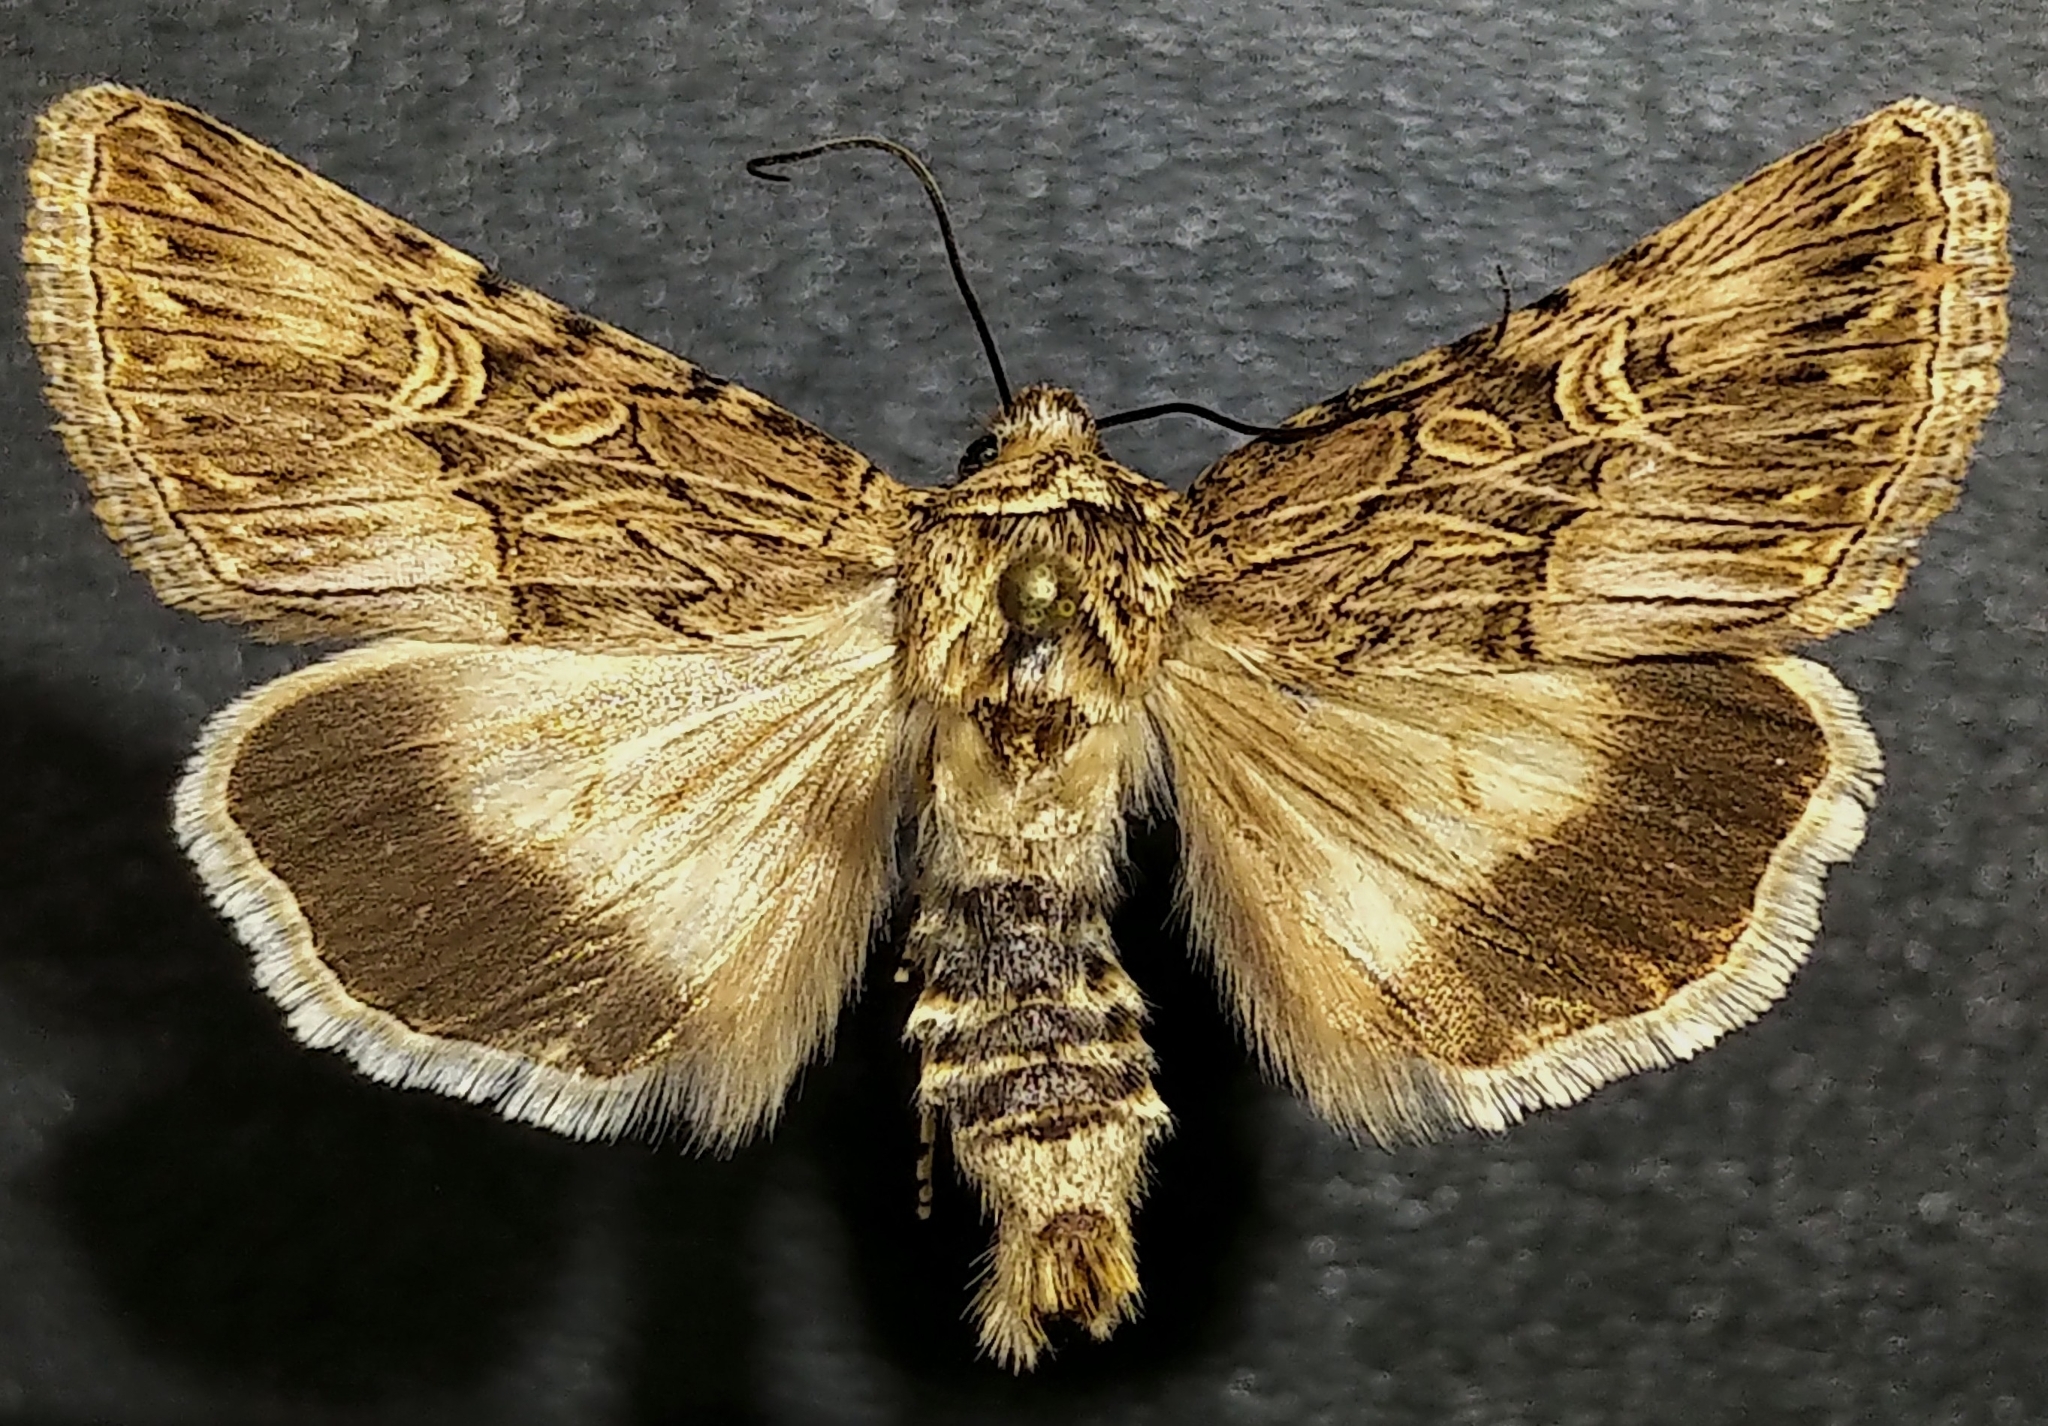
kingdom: Animalia
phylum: Arthropoda
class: Insecta
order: Lepidoptera
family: Noctuidae
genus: Sympistis
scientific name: Sympistis levis
